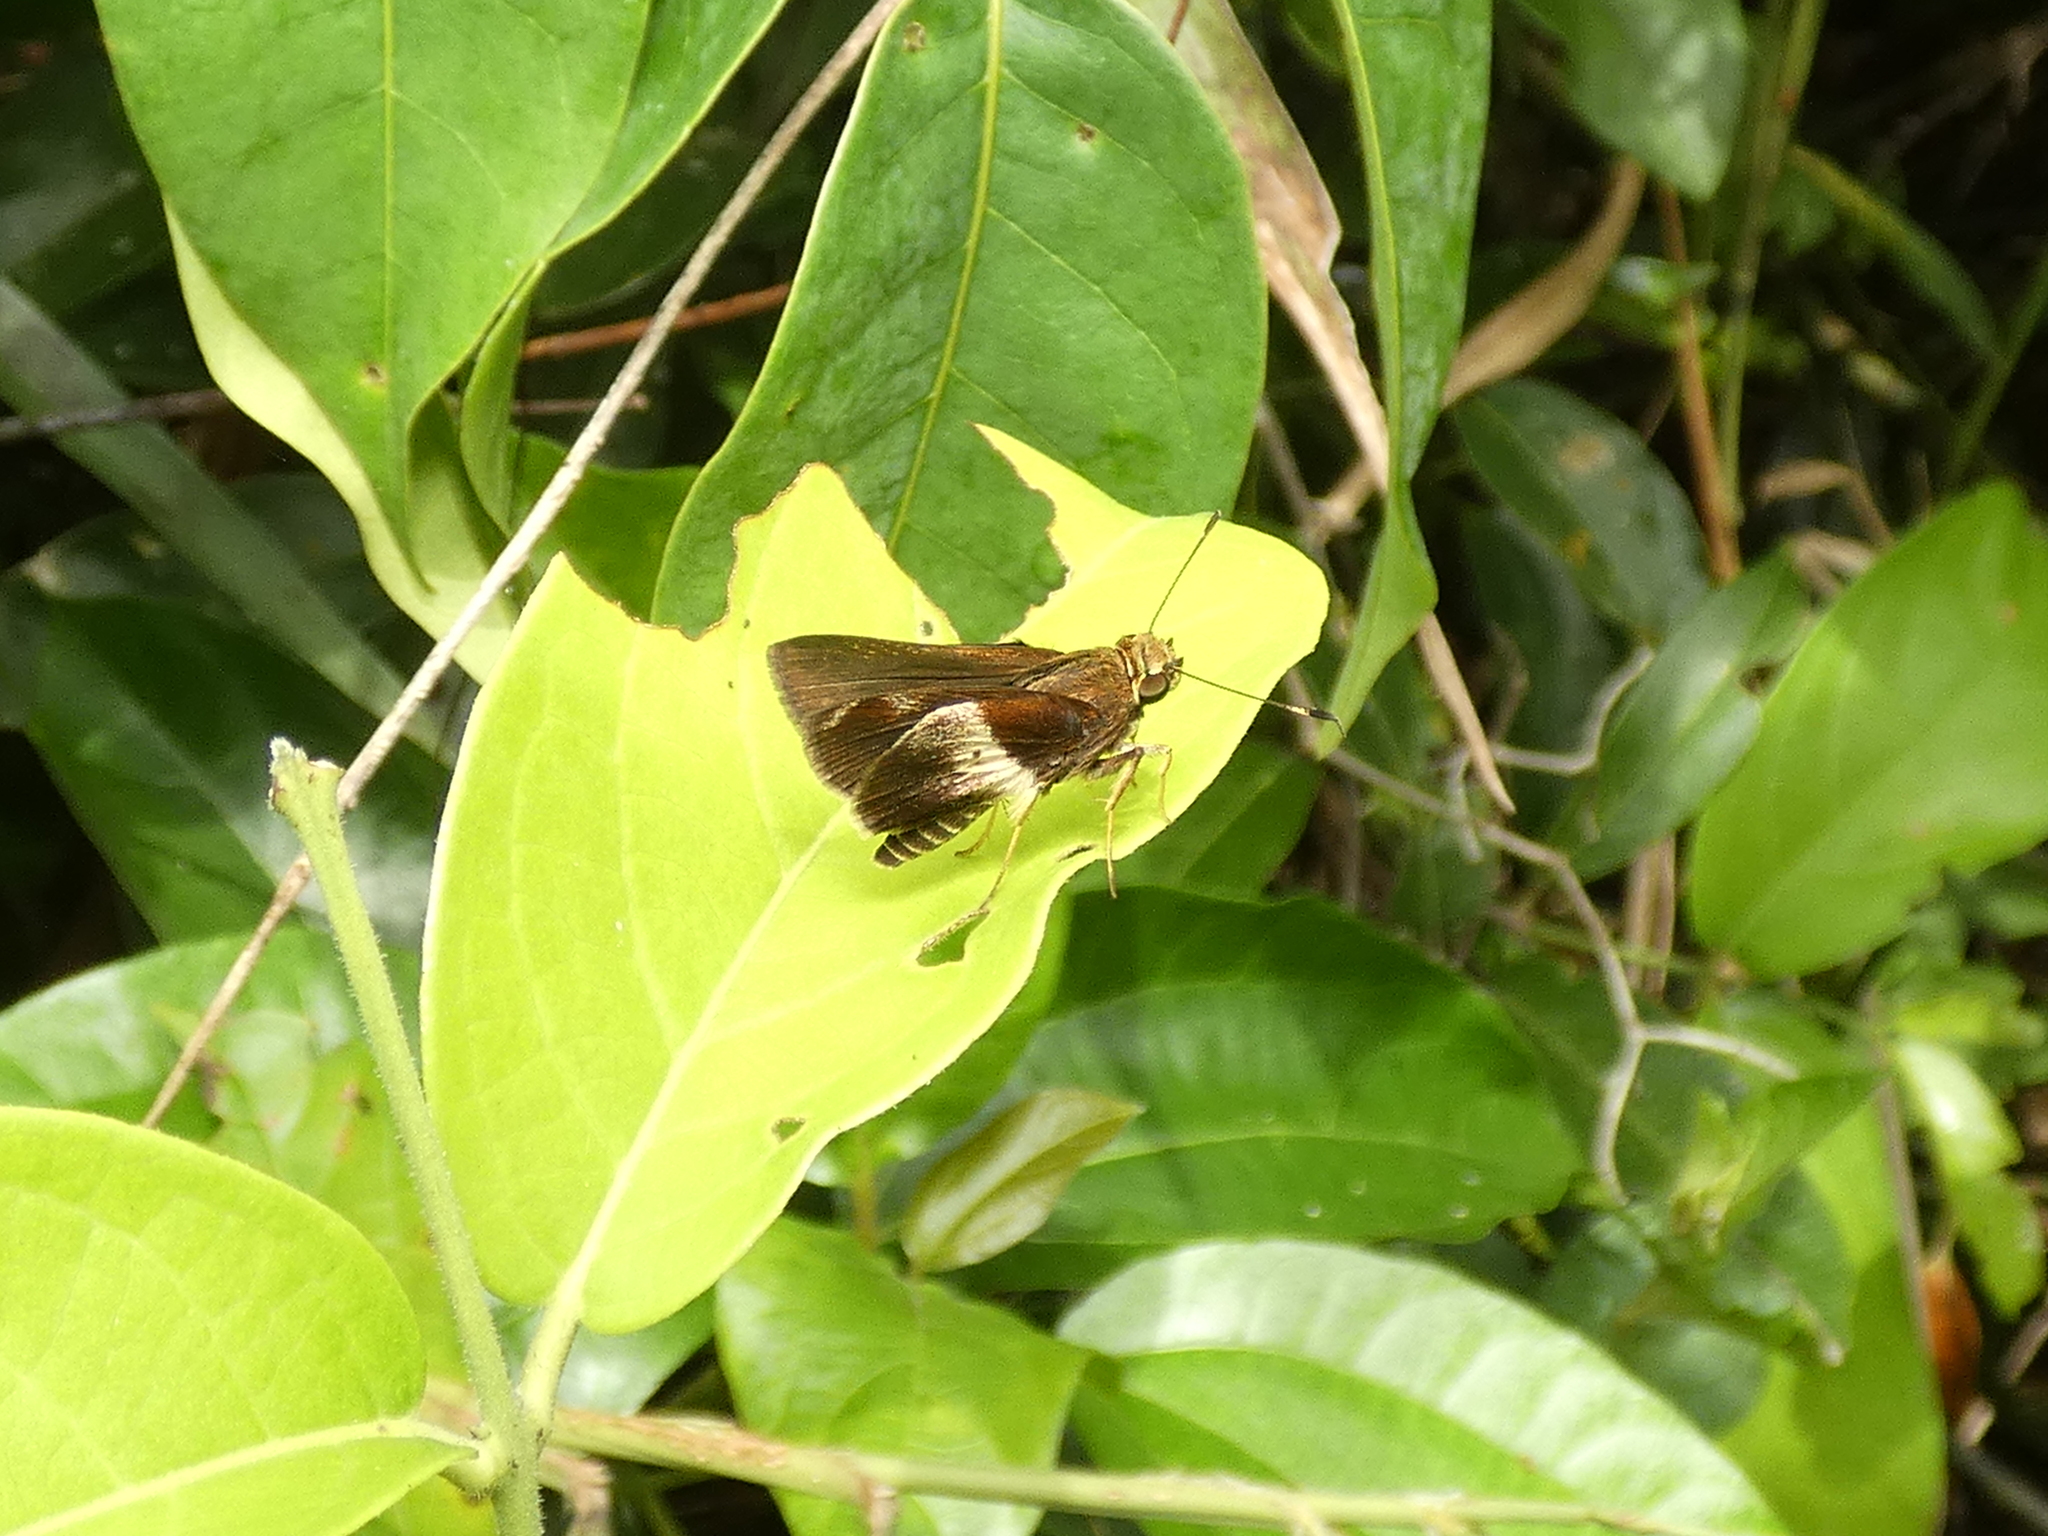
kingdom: Animalia
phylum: Arthropoda
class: Insecta
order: Lepidoptera
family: Hesperiidae
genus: Moeris
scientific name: Moeris remus
